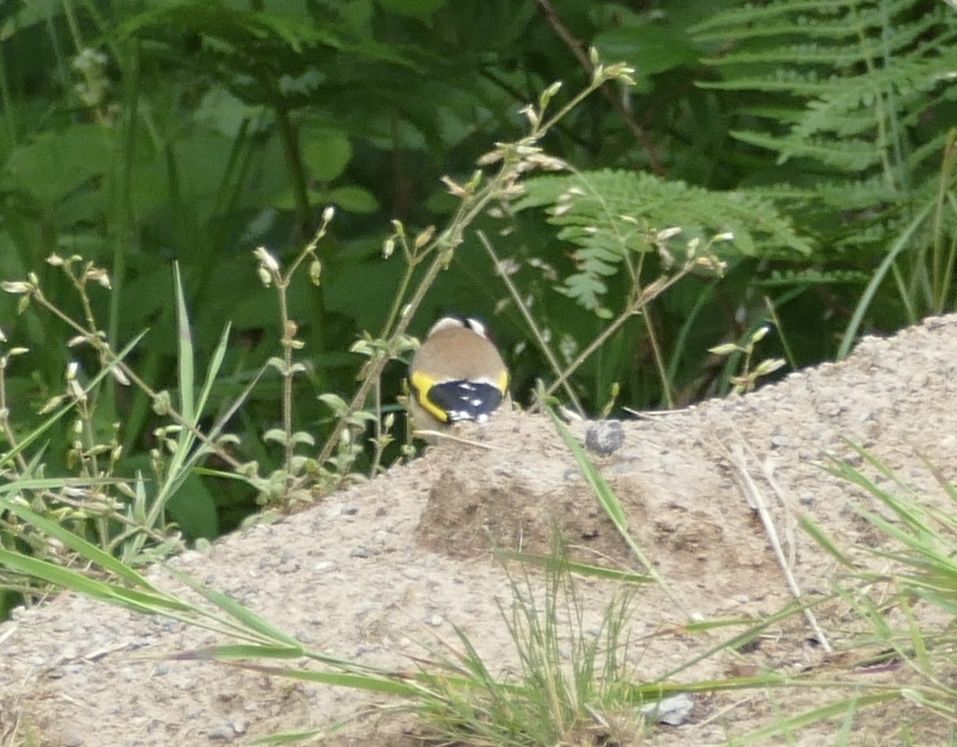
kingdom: Animalia
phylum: Chordata
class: Aves
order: Passeriformes
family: Fringillidae
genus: Carduelis
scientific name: Carduelis carduelis
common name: European goldfinch
